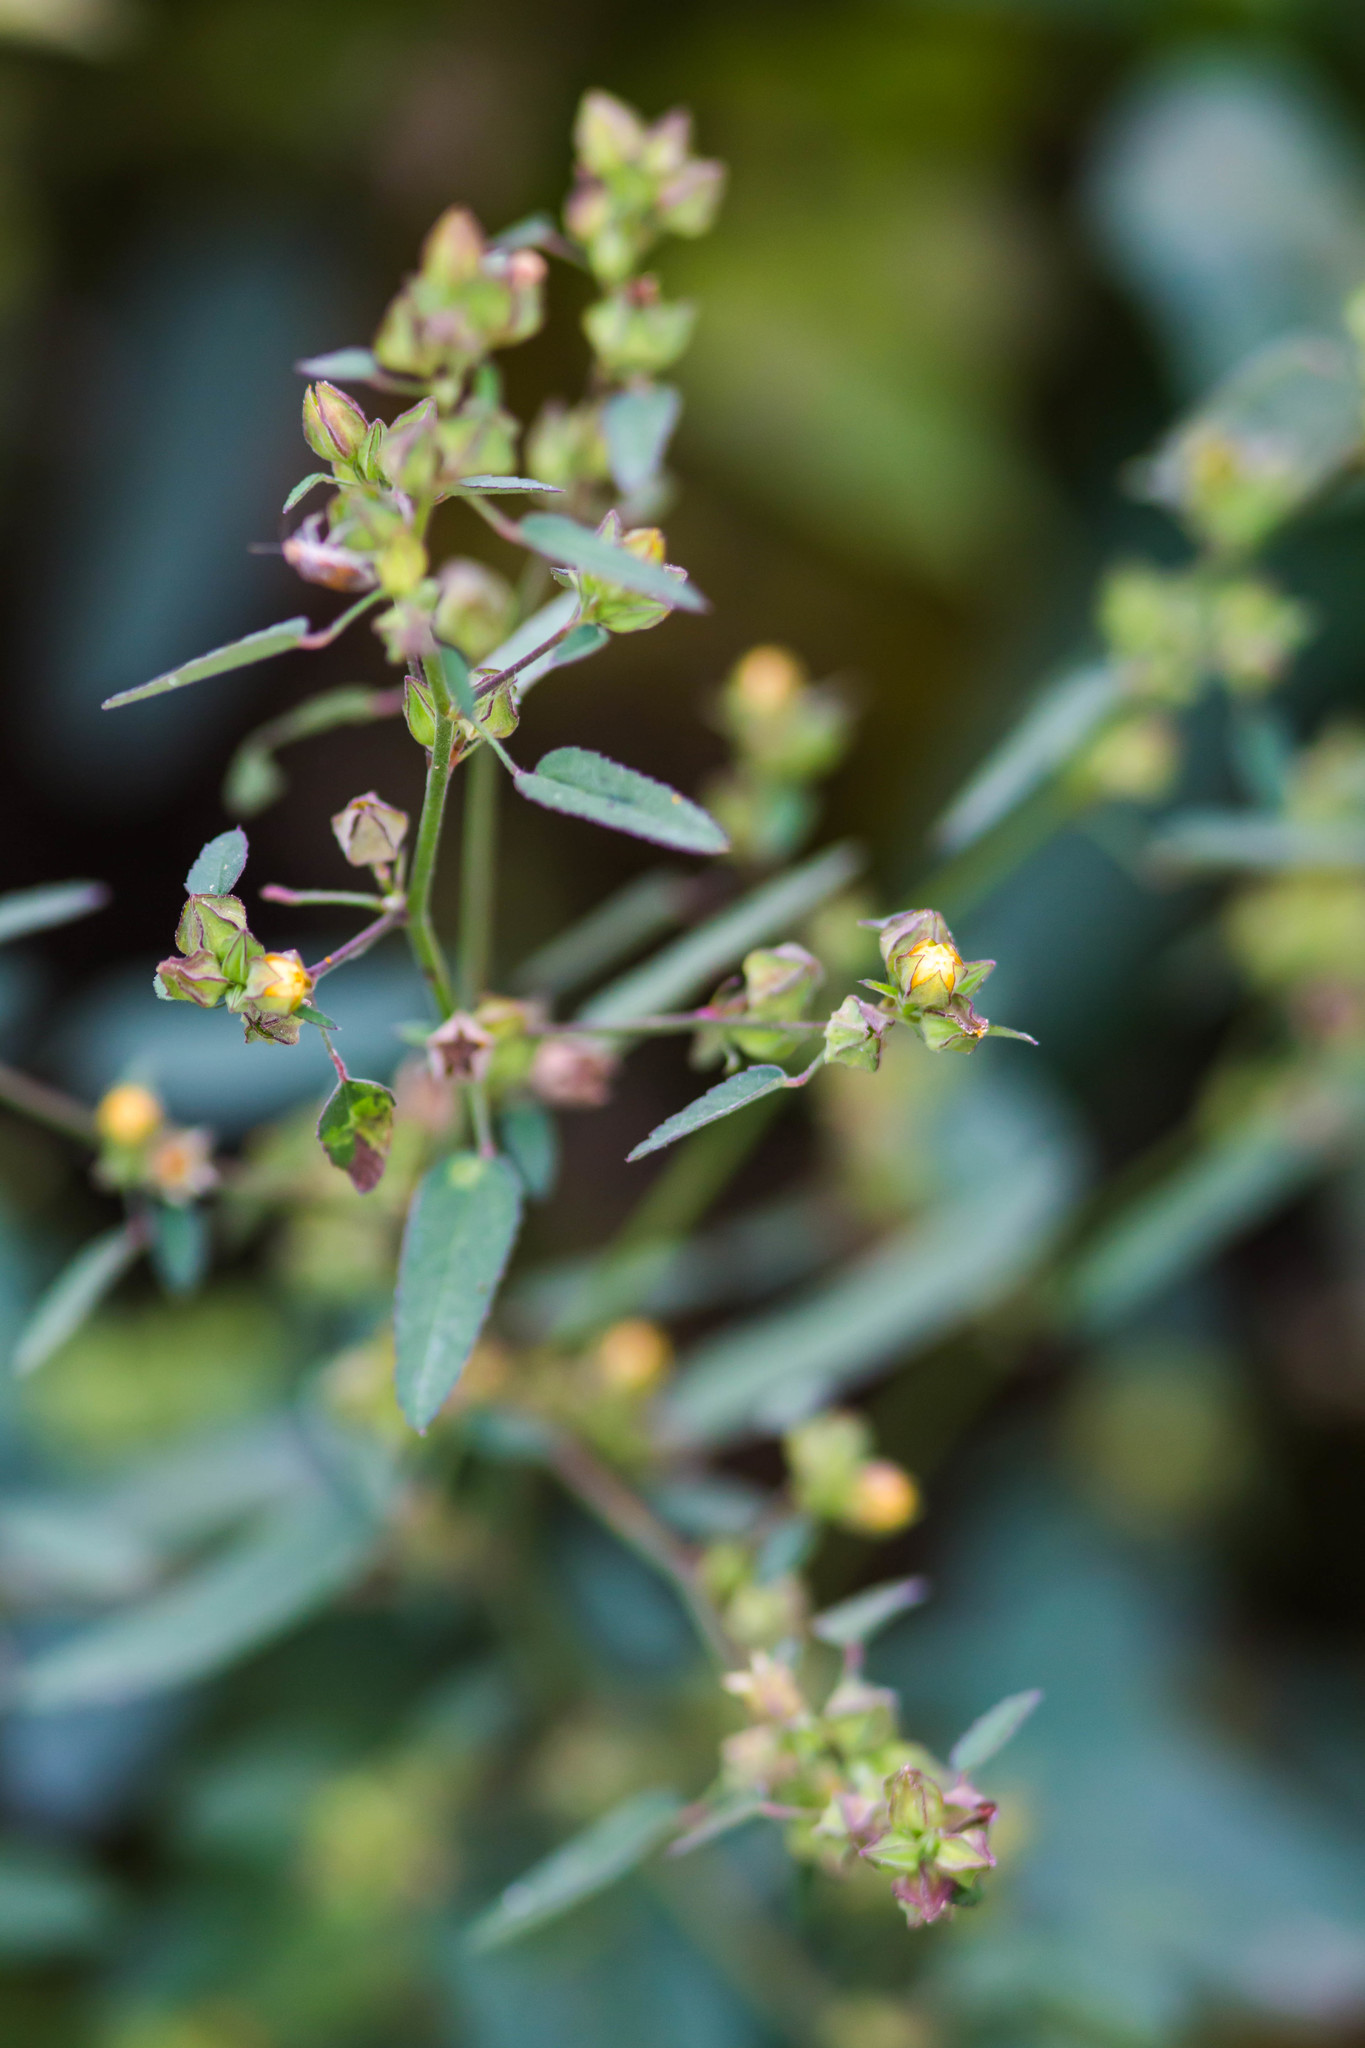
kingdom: Plantae
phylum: Tracheophyta
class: Magnoliopsida
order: Malvales
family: Malvaceae
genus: Sida
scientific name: Sida spinosa
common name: Prickly fanpetals
